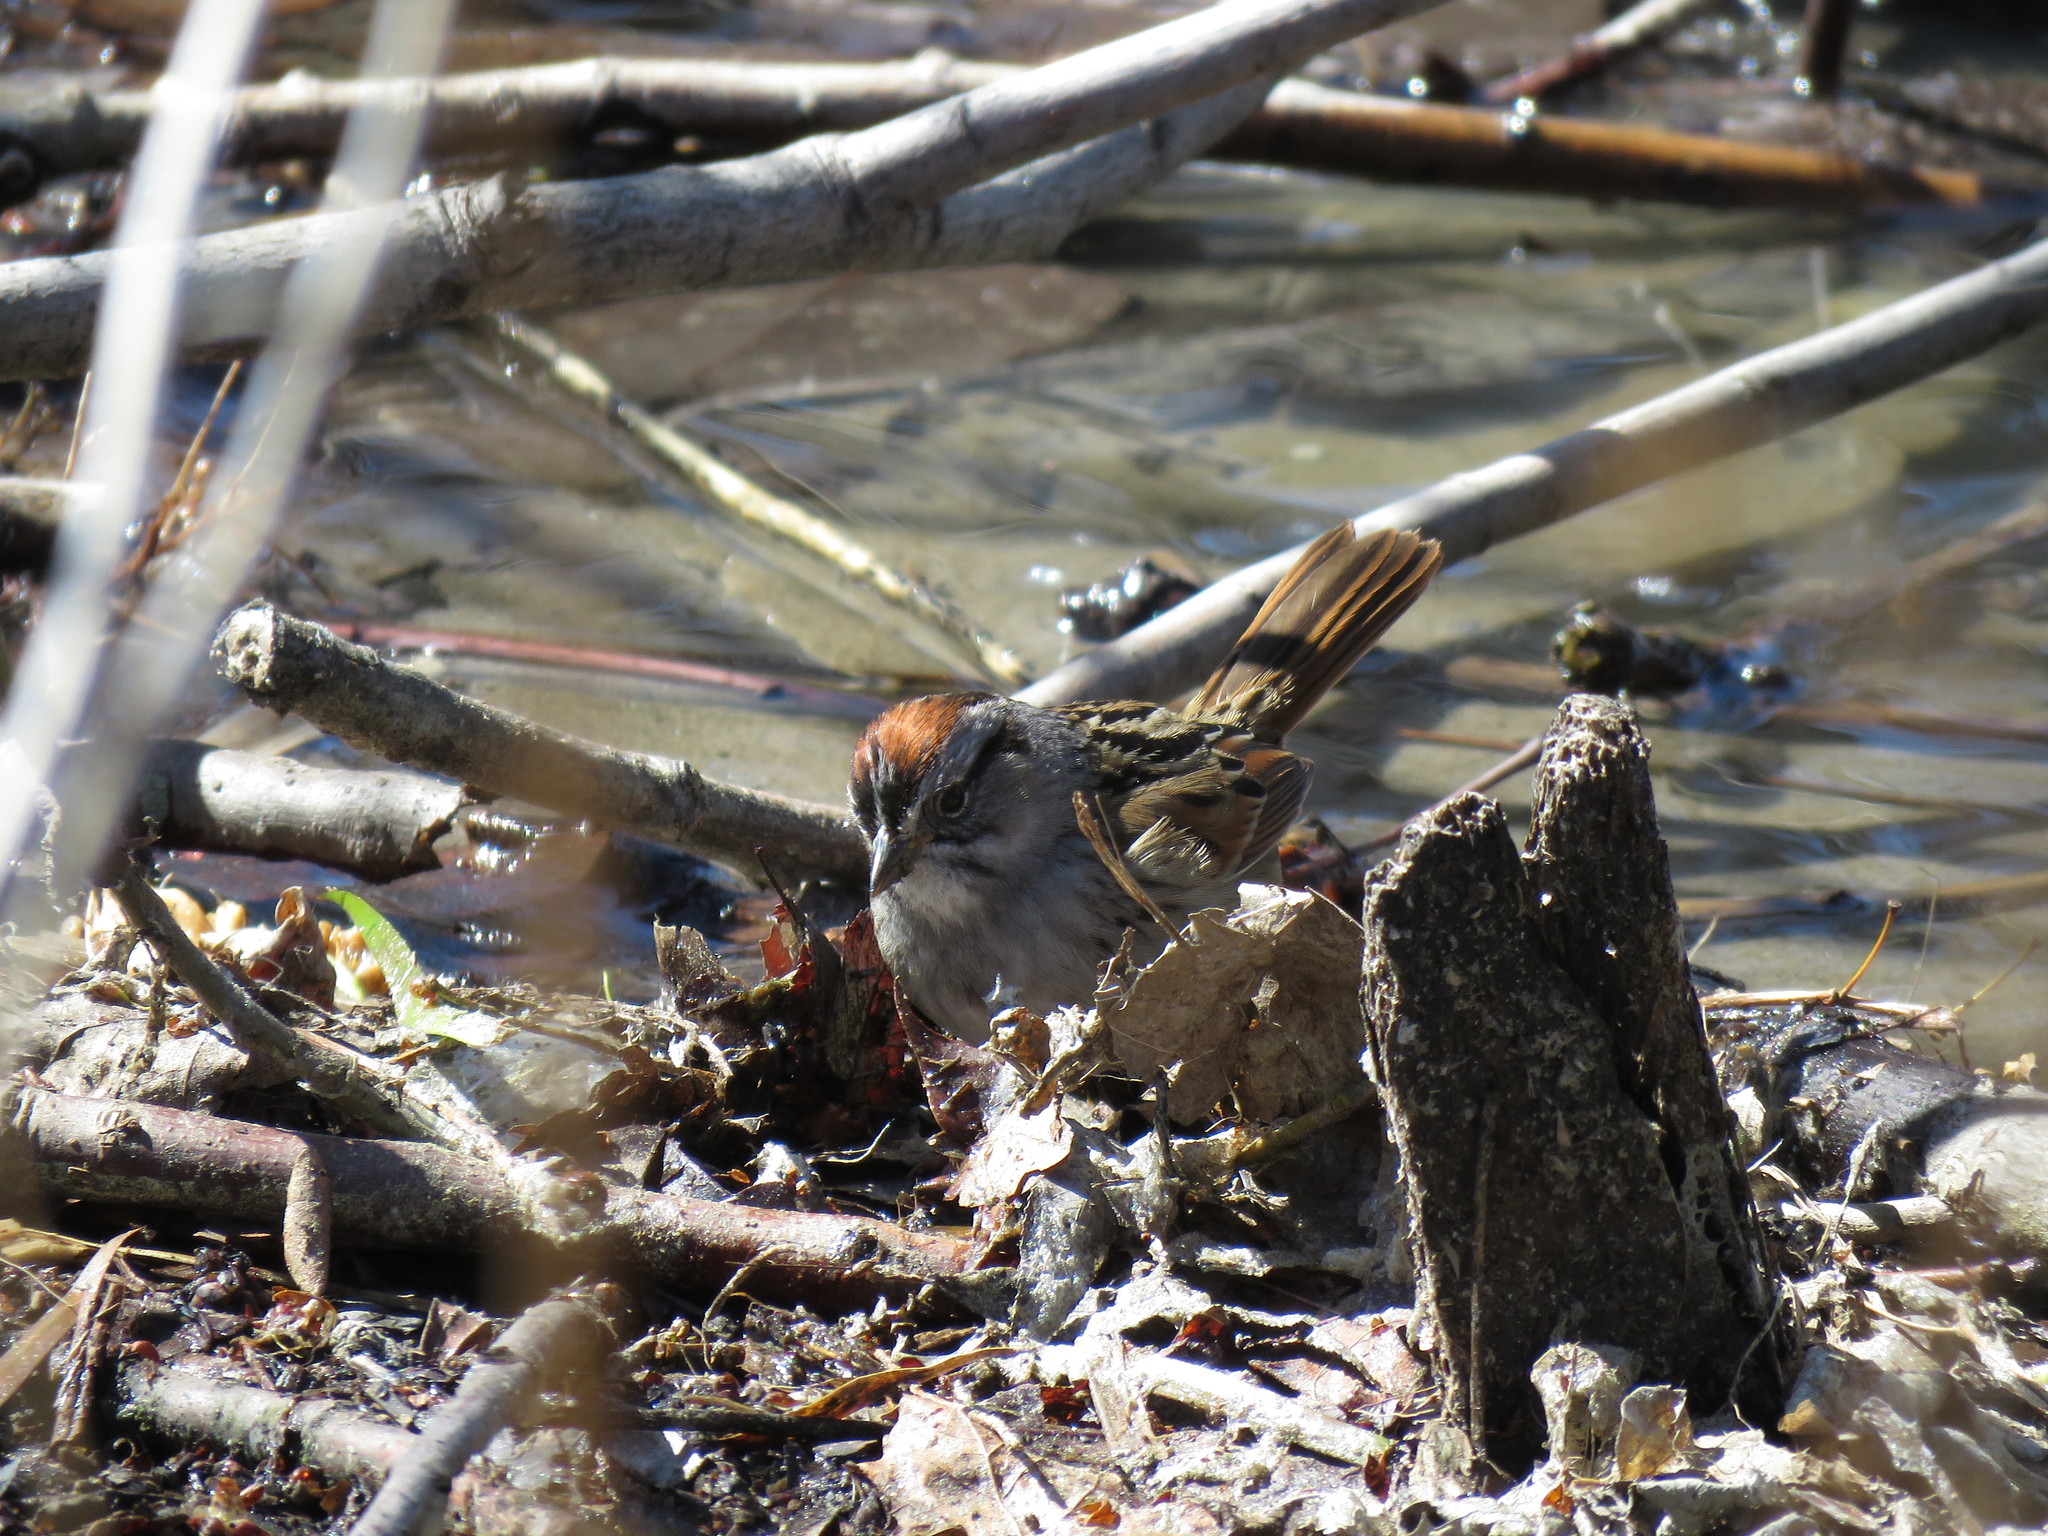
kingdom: Animalia
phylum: Chordata
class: Aves
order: Passeriformes
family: Passerellidae
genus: Melospiza
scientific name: Melospiza georgiana
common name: Swamp sparrow
